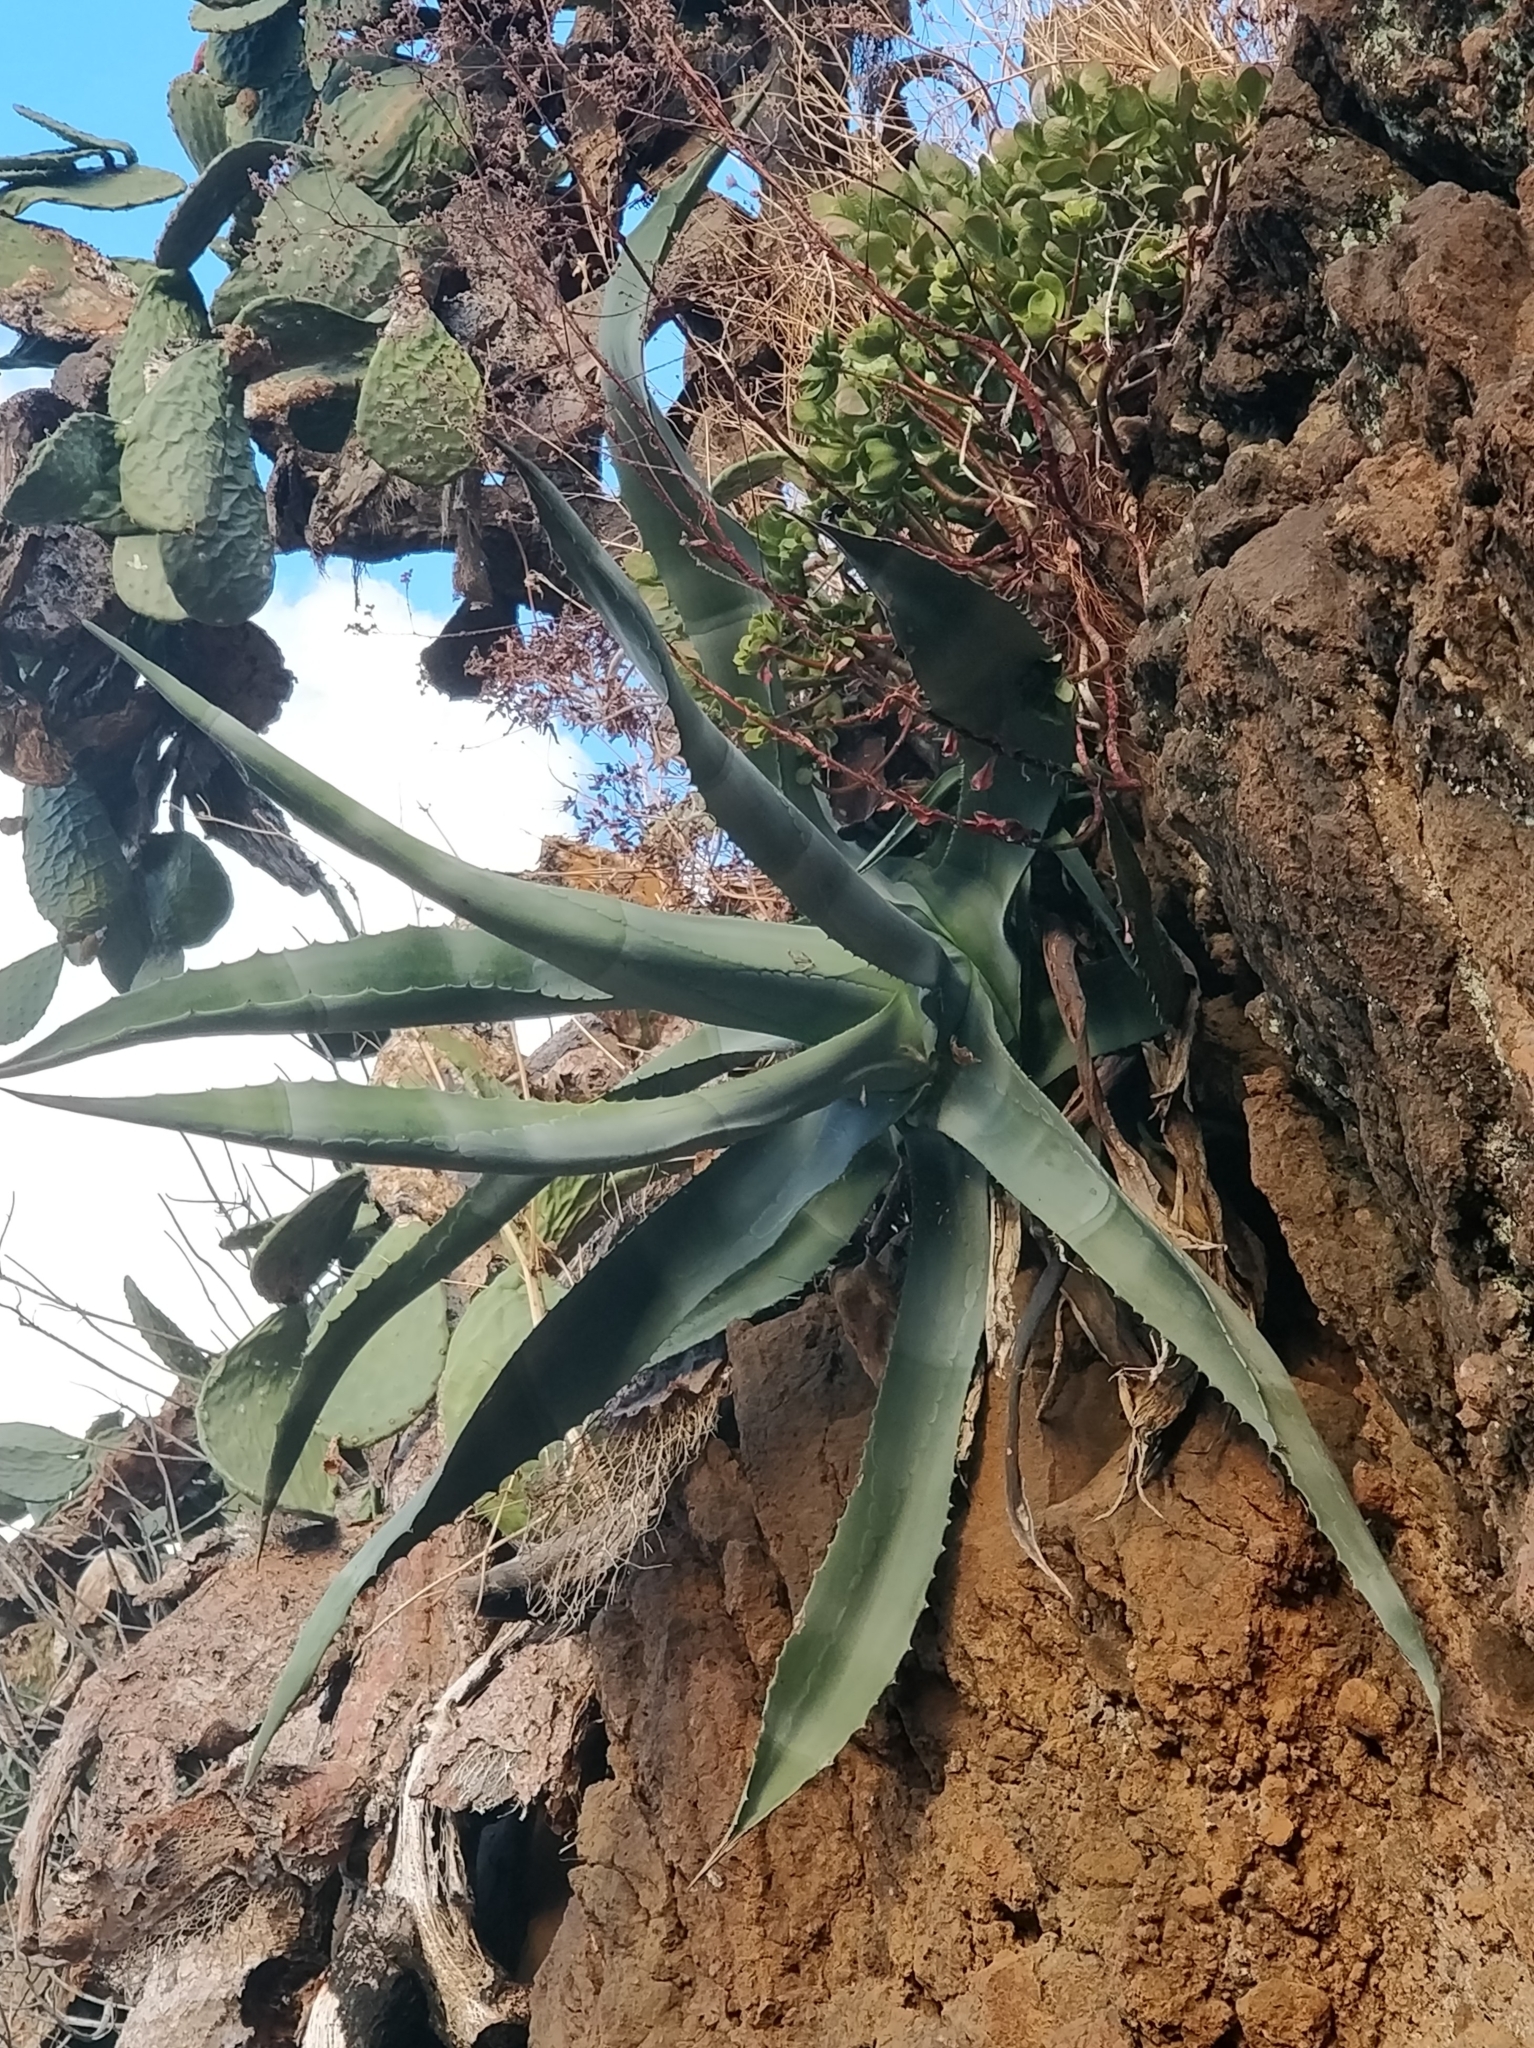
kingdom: Plantae
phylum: Tracheophyta
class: Liliopsida
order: Asparagales
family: Asparagaceae
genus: Agave
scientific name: Agave americana
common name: Centuryplant
